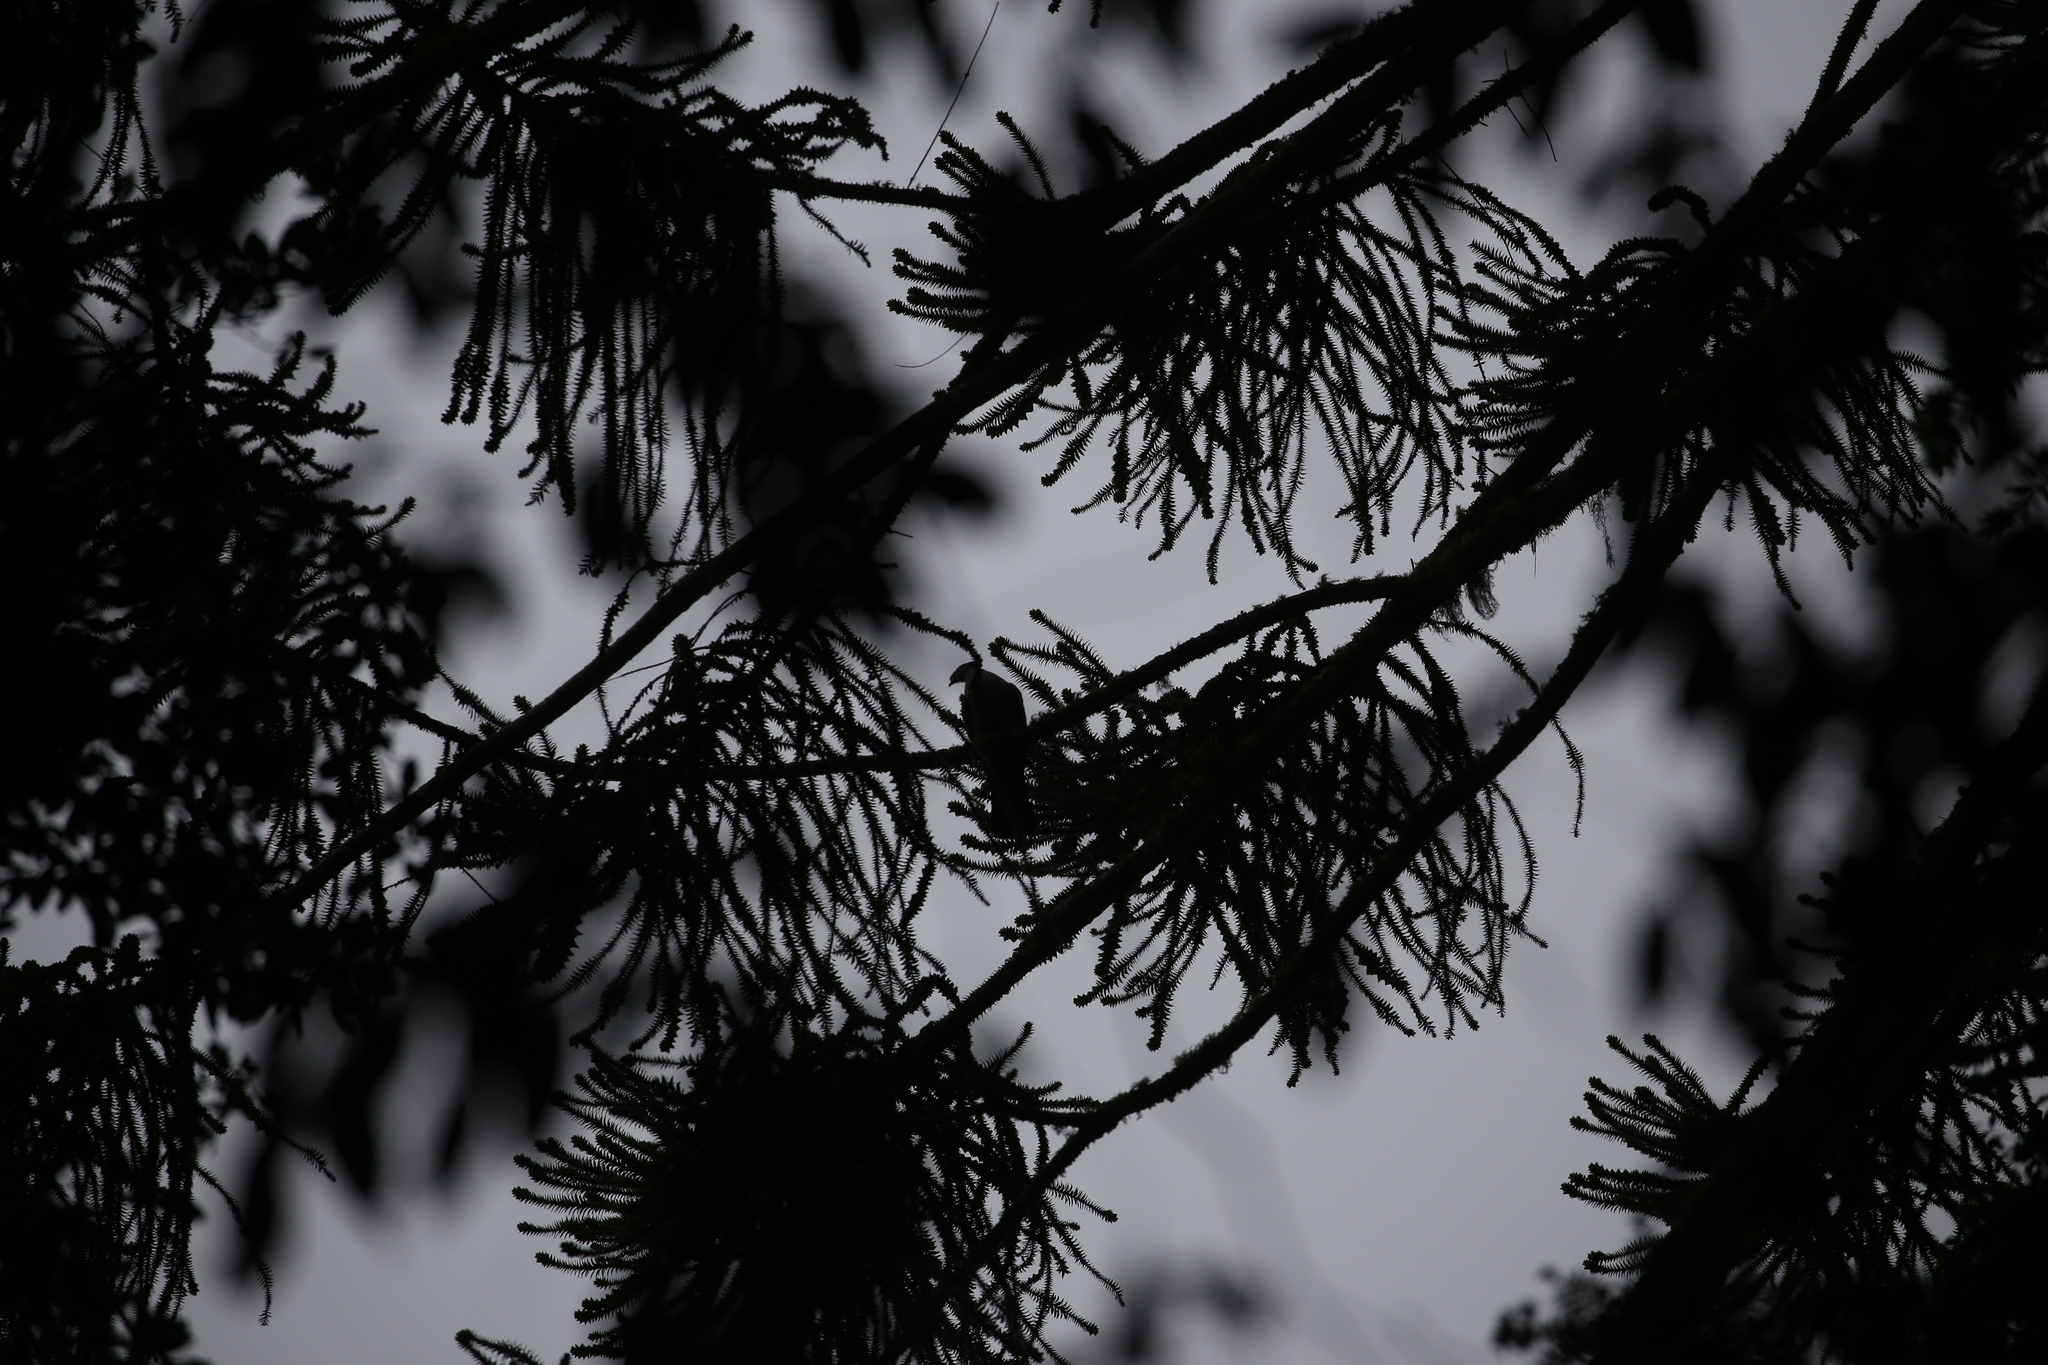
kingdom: Animalia
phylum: Chordata
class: Aves
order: Columbiformes
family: Columbidae
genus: Lopholaimus
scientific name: Lopholaimus antarcticus
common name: Topknot pigeon
